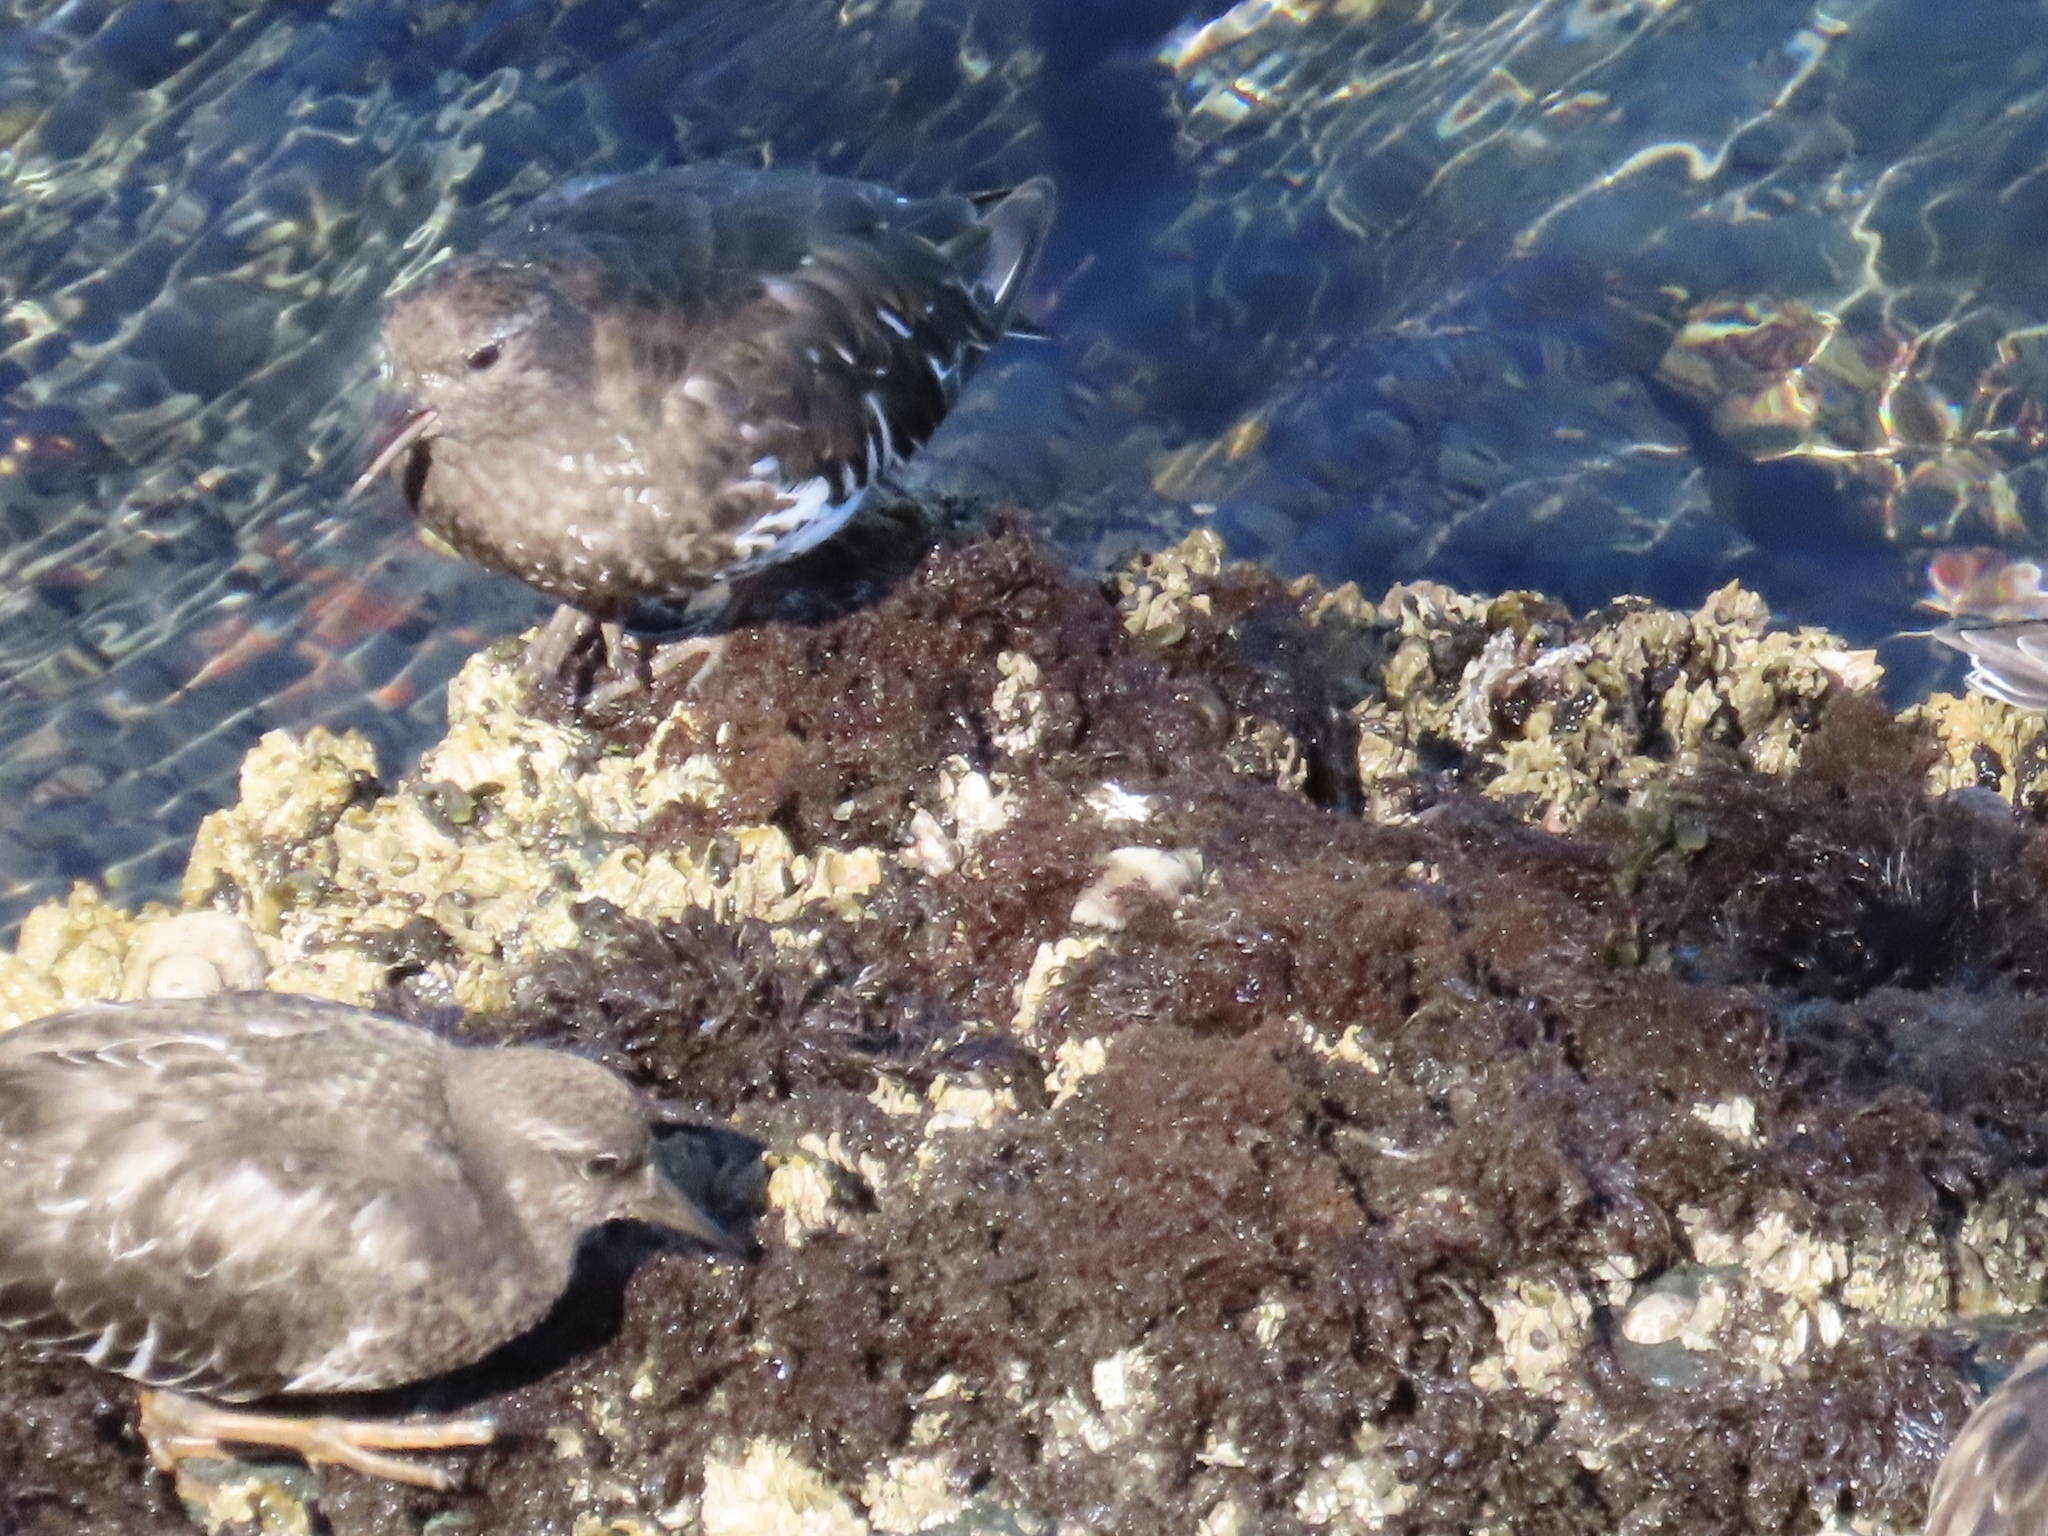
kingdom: Animalia
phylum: Chordata
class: Aves
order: Charadriiformes
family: Scolopacidae
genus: Arenaria
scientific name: Arenaria melanocephala
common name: Black turnstone
